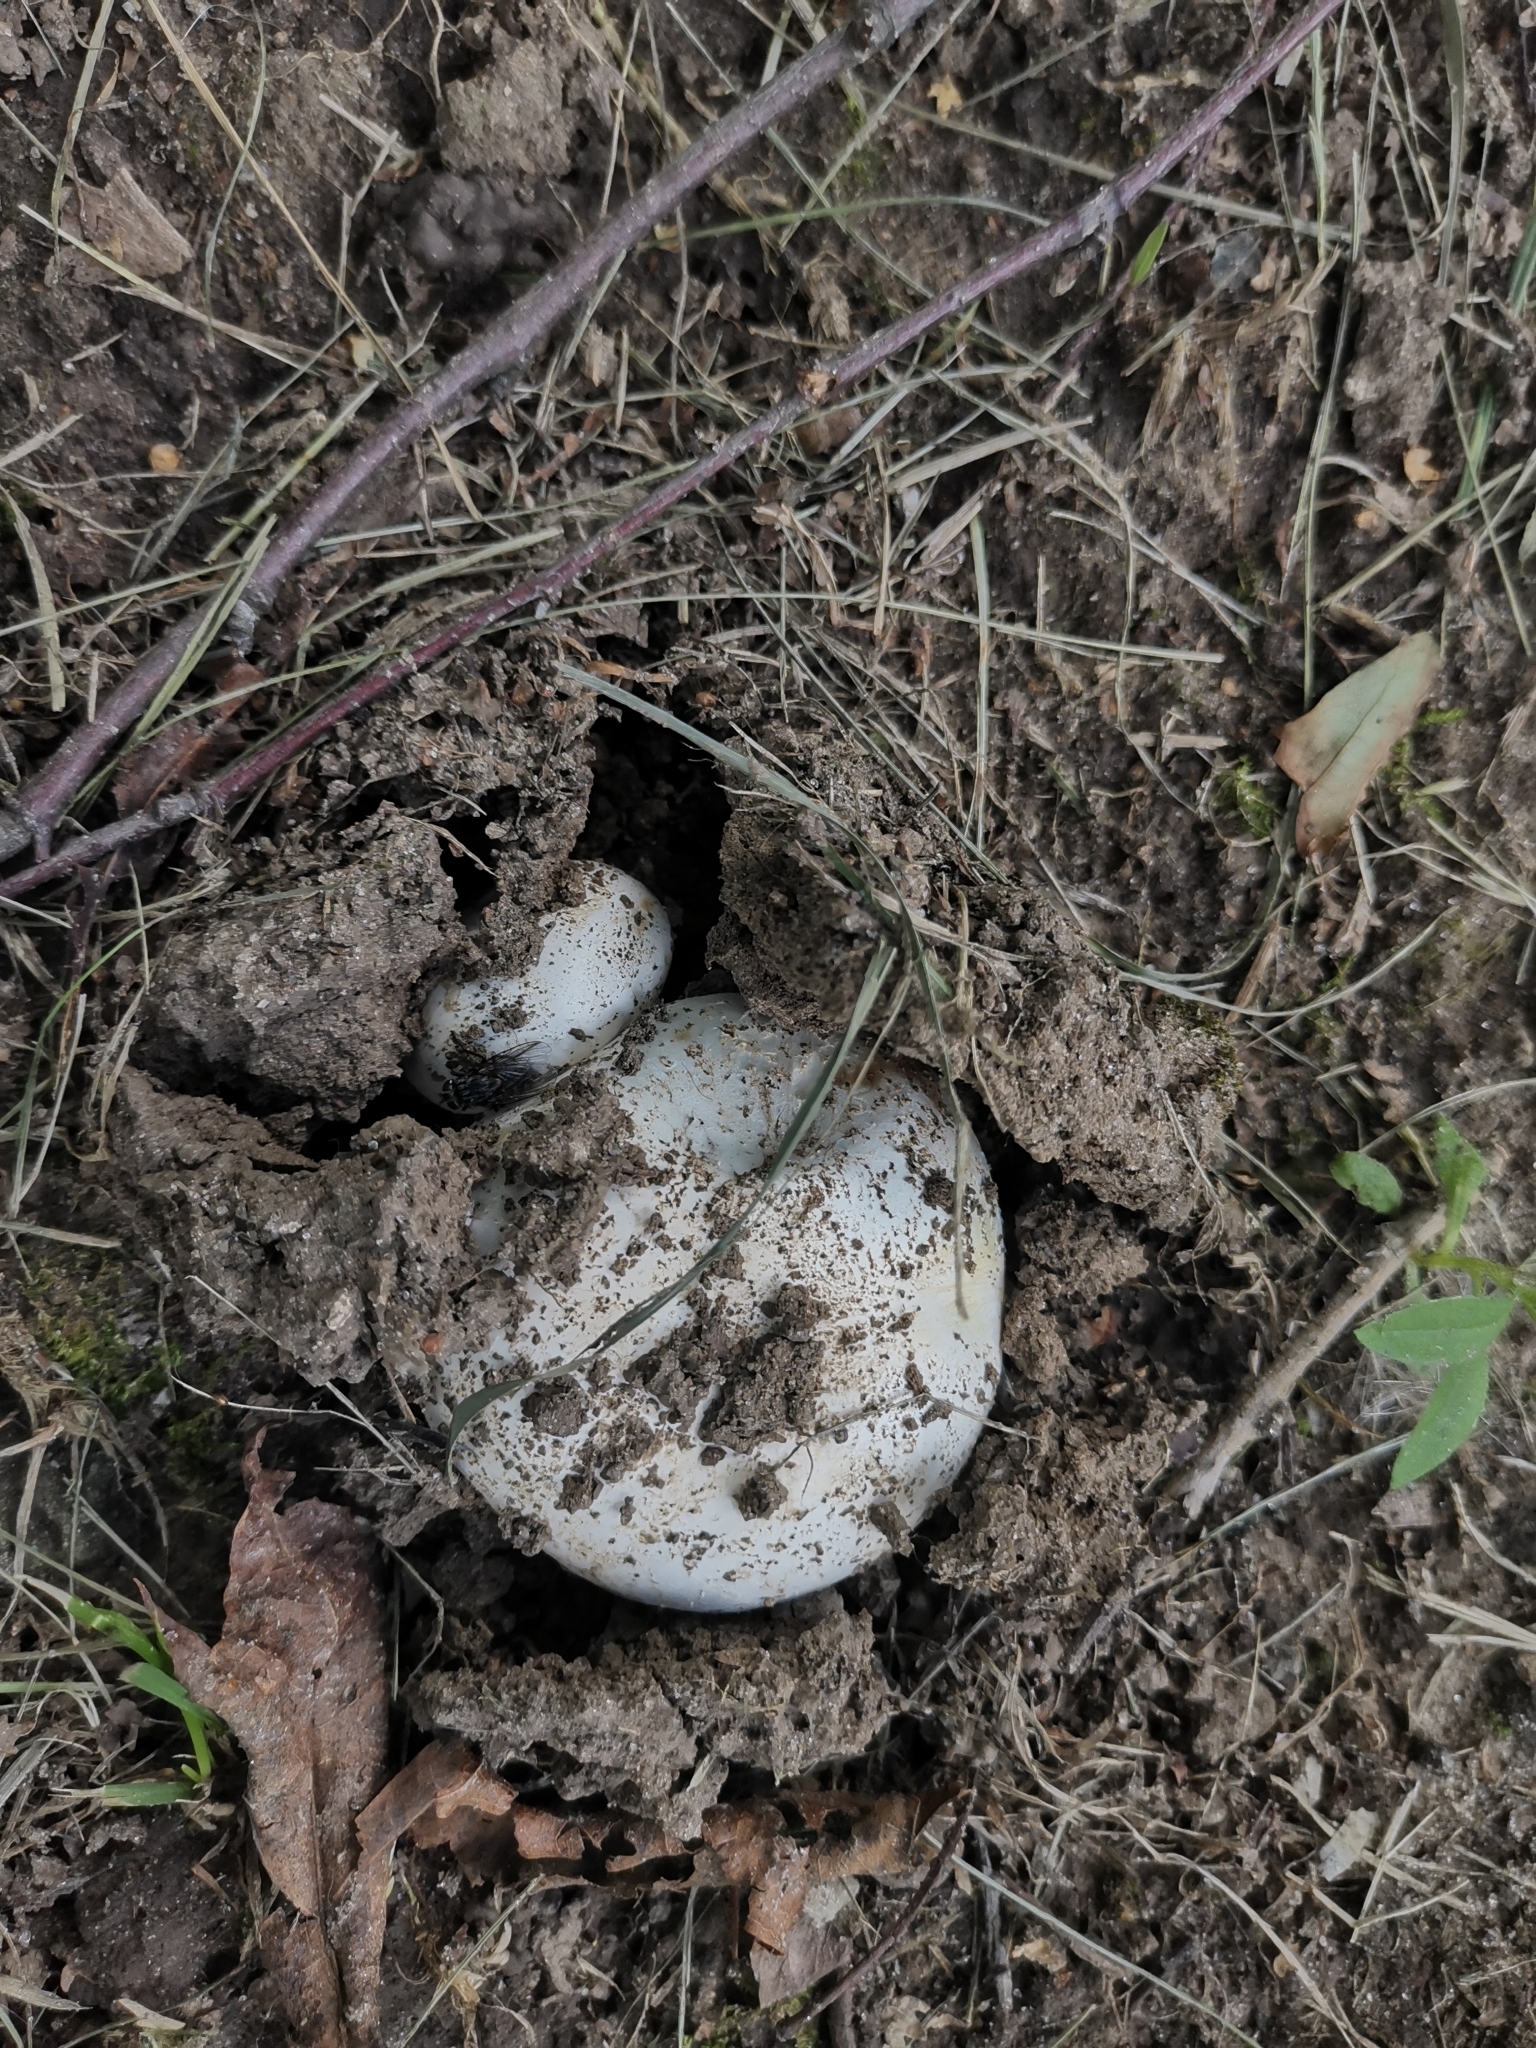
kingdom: Fungi
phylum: Basidiomycota
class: Agaricomycetes
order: Agaricales
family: Agaricaceae
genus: Agaricus
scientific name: Agaricus bitorquis
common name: Pavement mushroom
